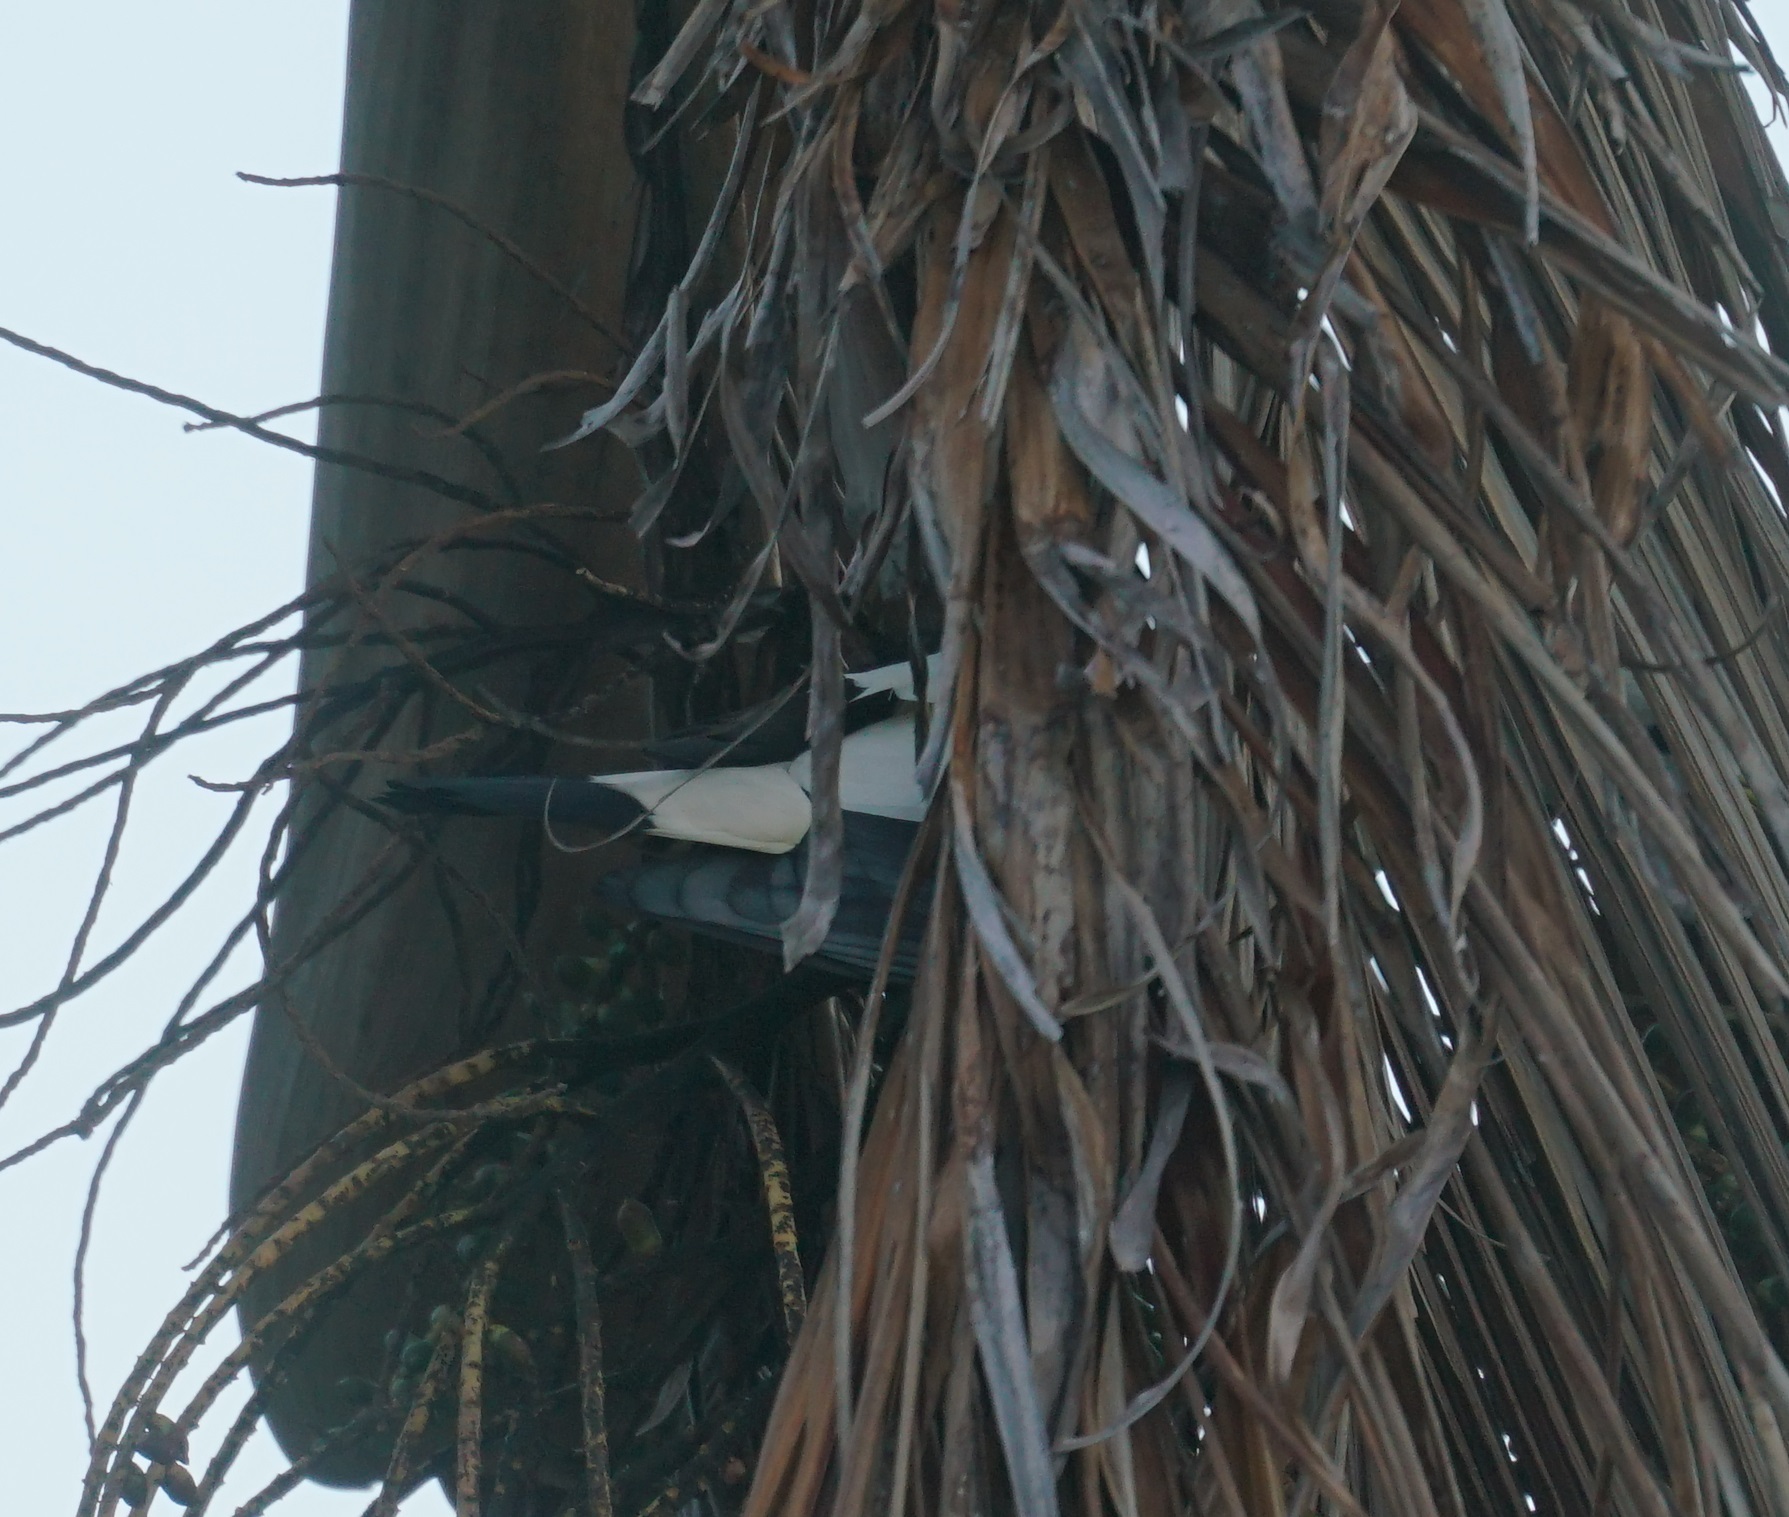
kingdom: Animalia
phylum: Chordata
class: Aves
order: Columbiformes
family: Columbidae
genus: Ducula
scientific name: Ducula spilorrhoa
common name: Torresian imperial pigeon
